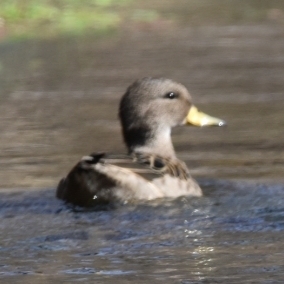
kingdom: Animalia
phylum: Chordata
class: Aves
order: Anseriformes
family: Anatidae
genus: Anas
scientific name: Anas flavirostris
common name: Yellow-billed teal
